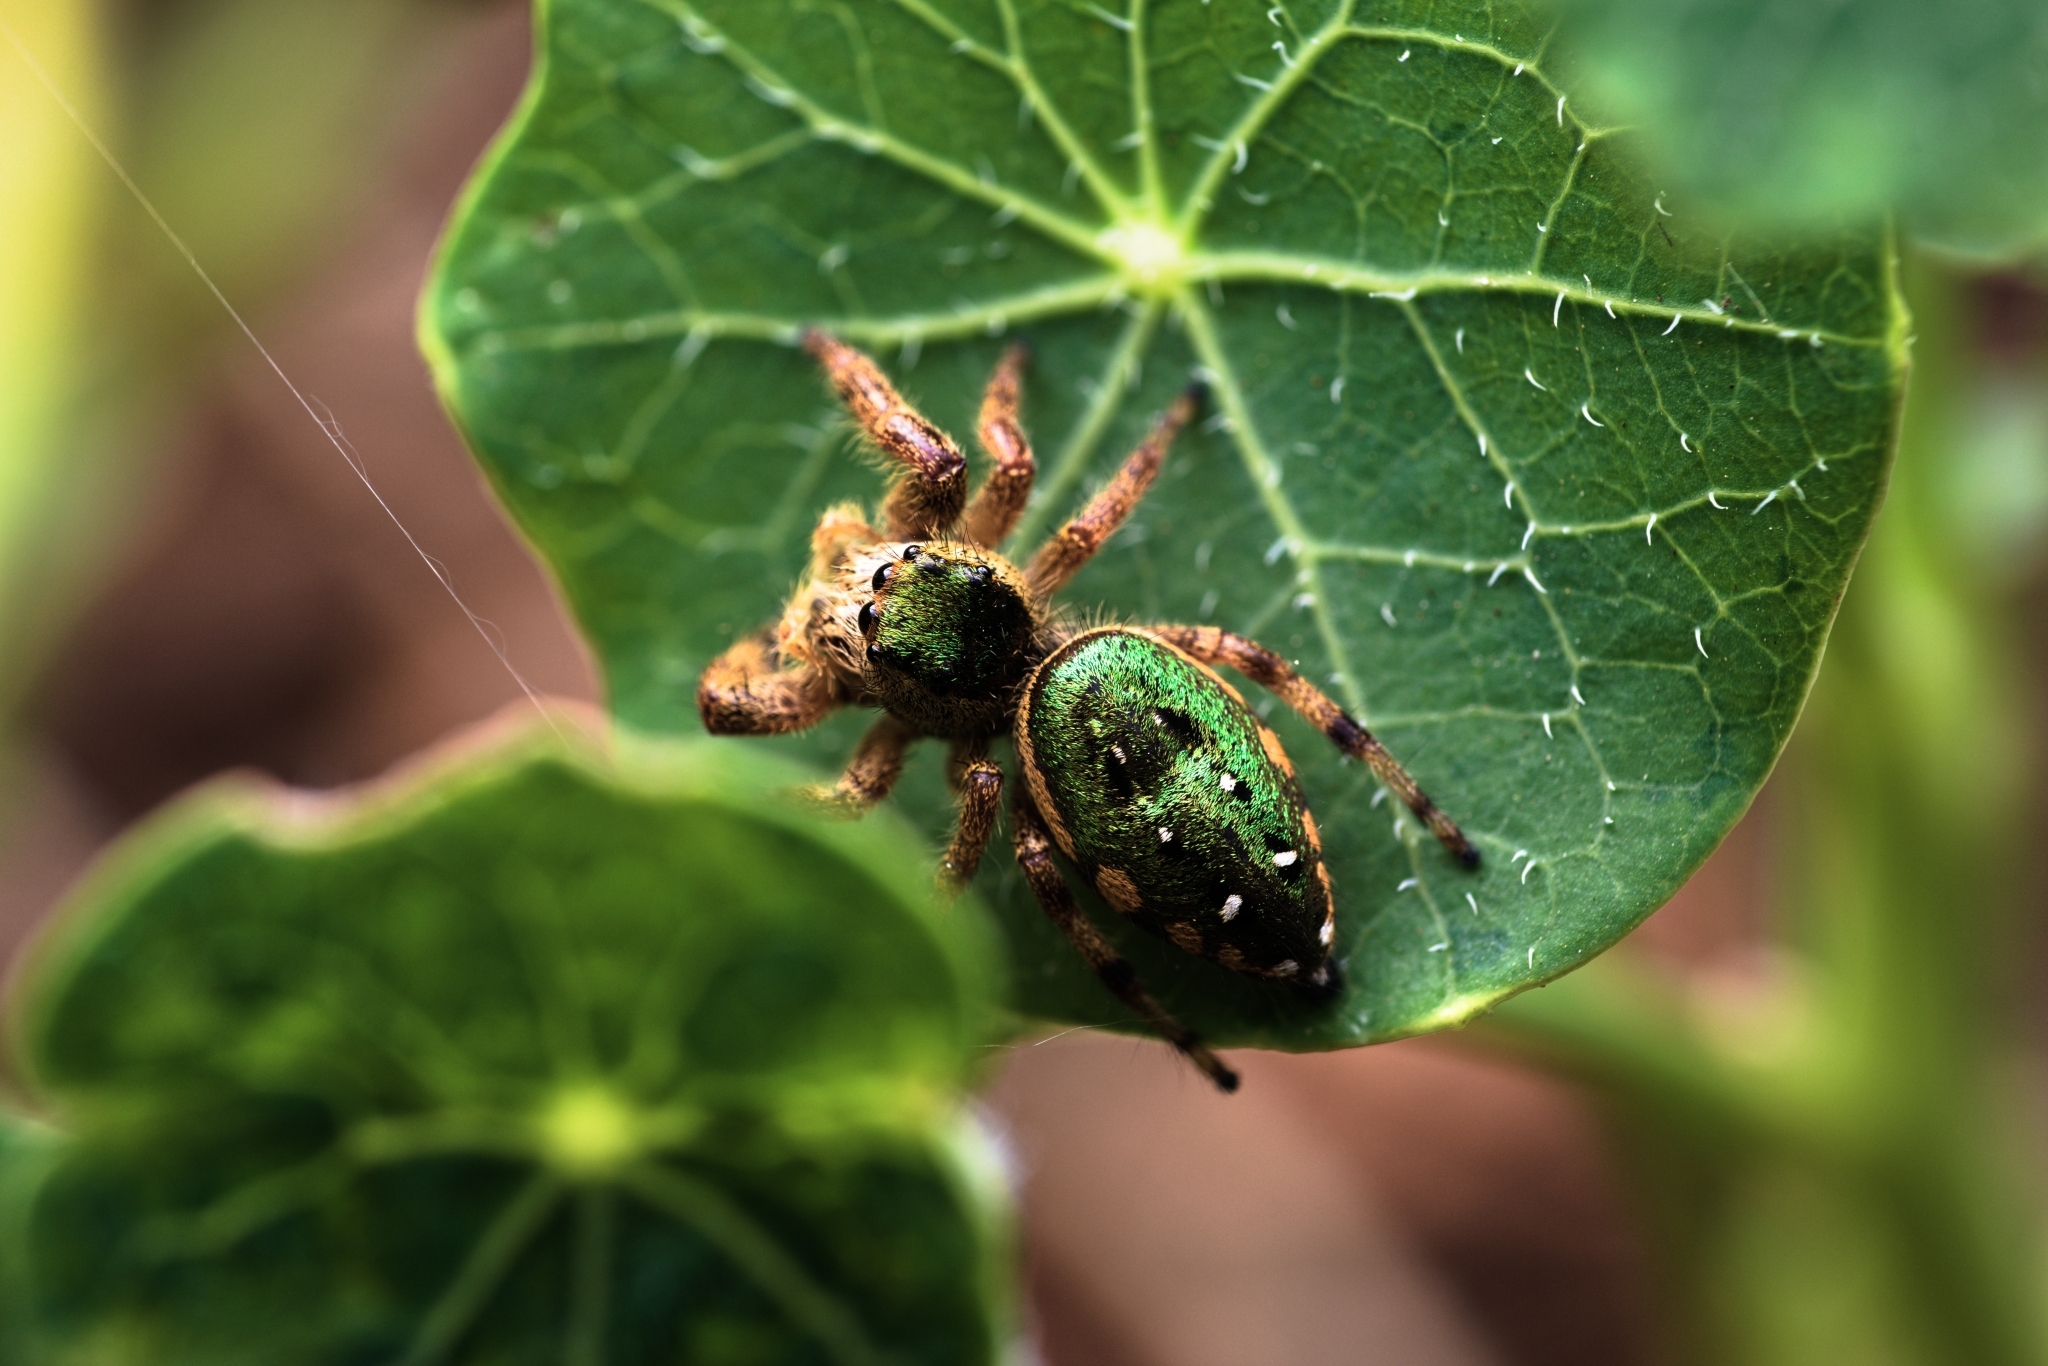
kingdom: Animalia
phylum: Arthropoda
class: Arachnida
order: Araneae
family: Salticidae
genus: Paraphidippus
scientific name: Paraphidippus aurantius
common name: Jumping spiders
